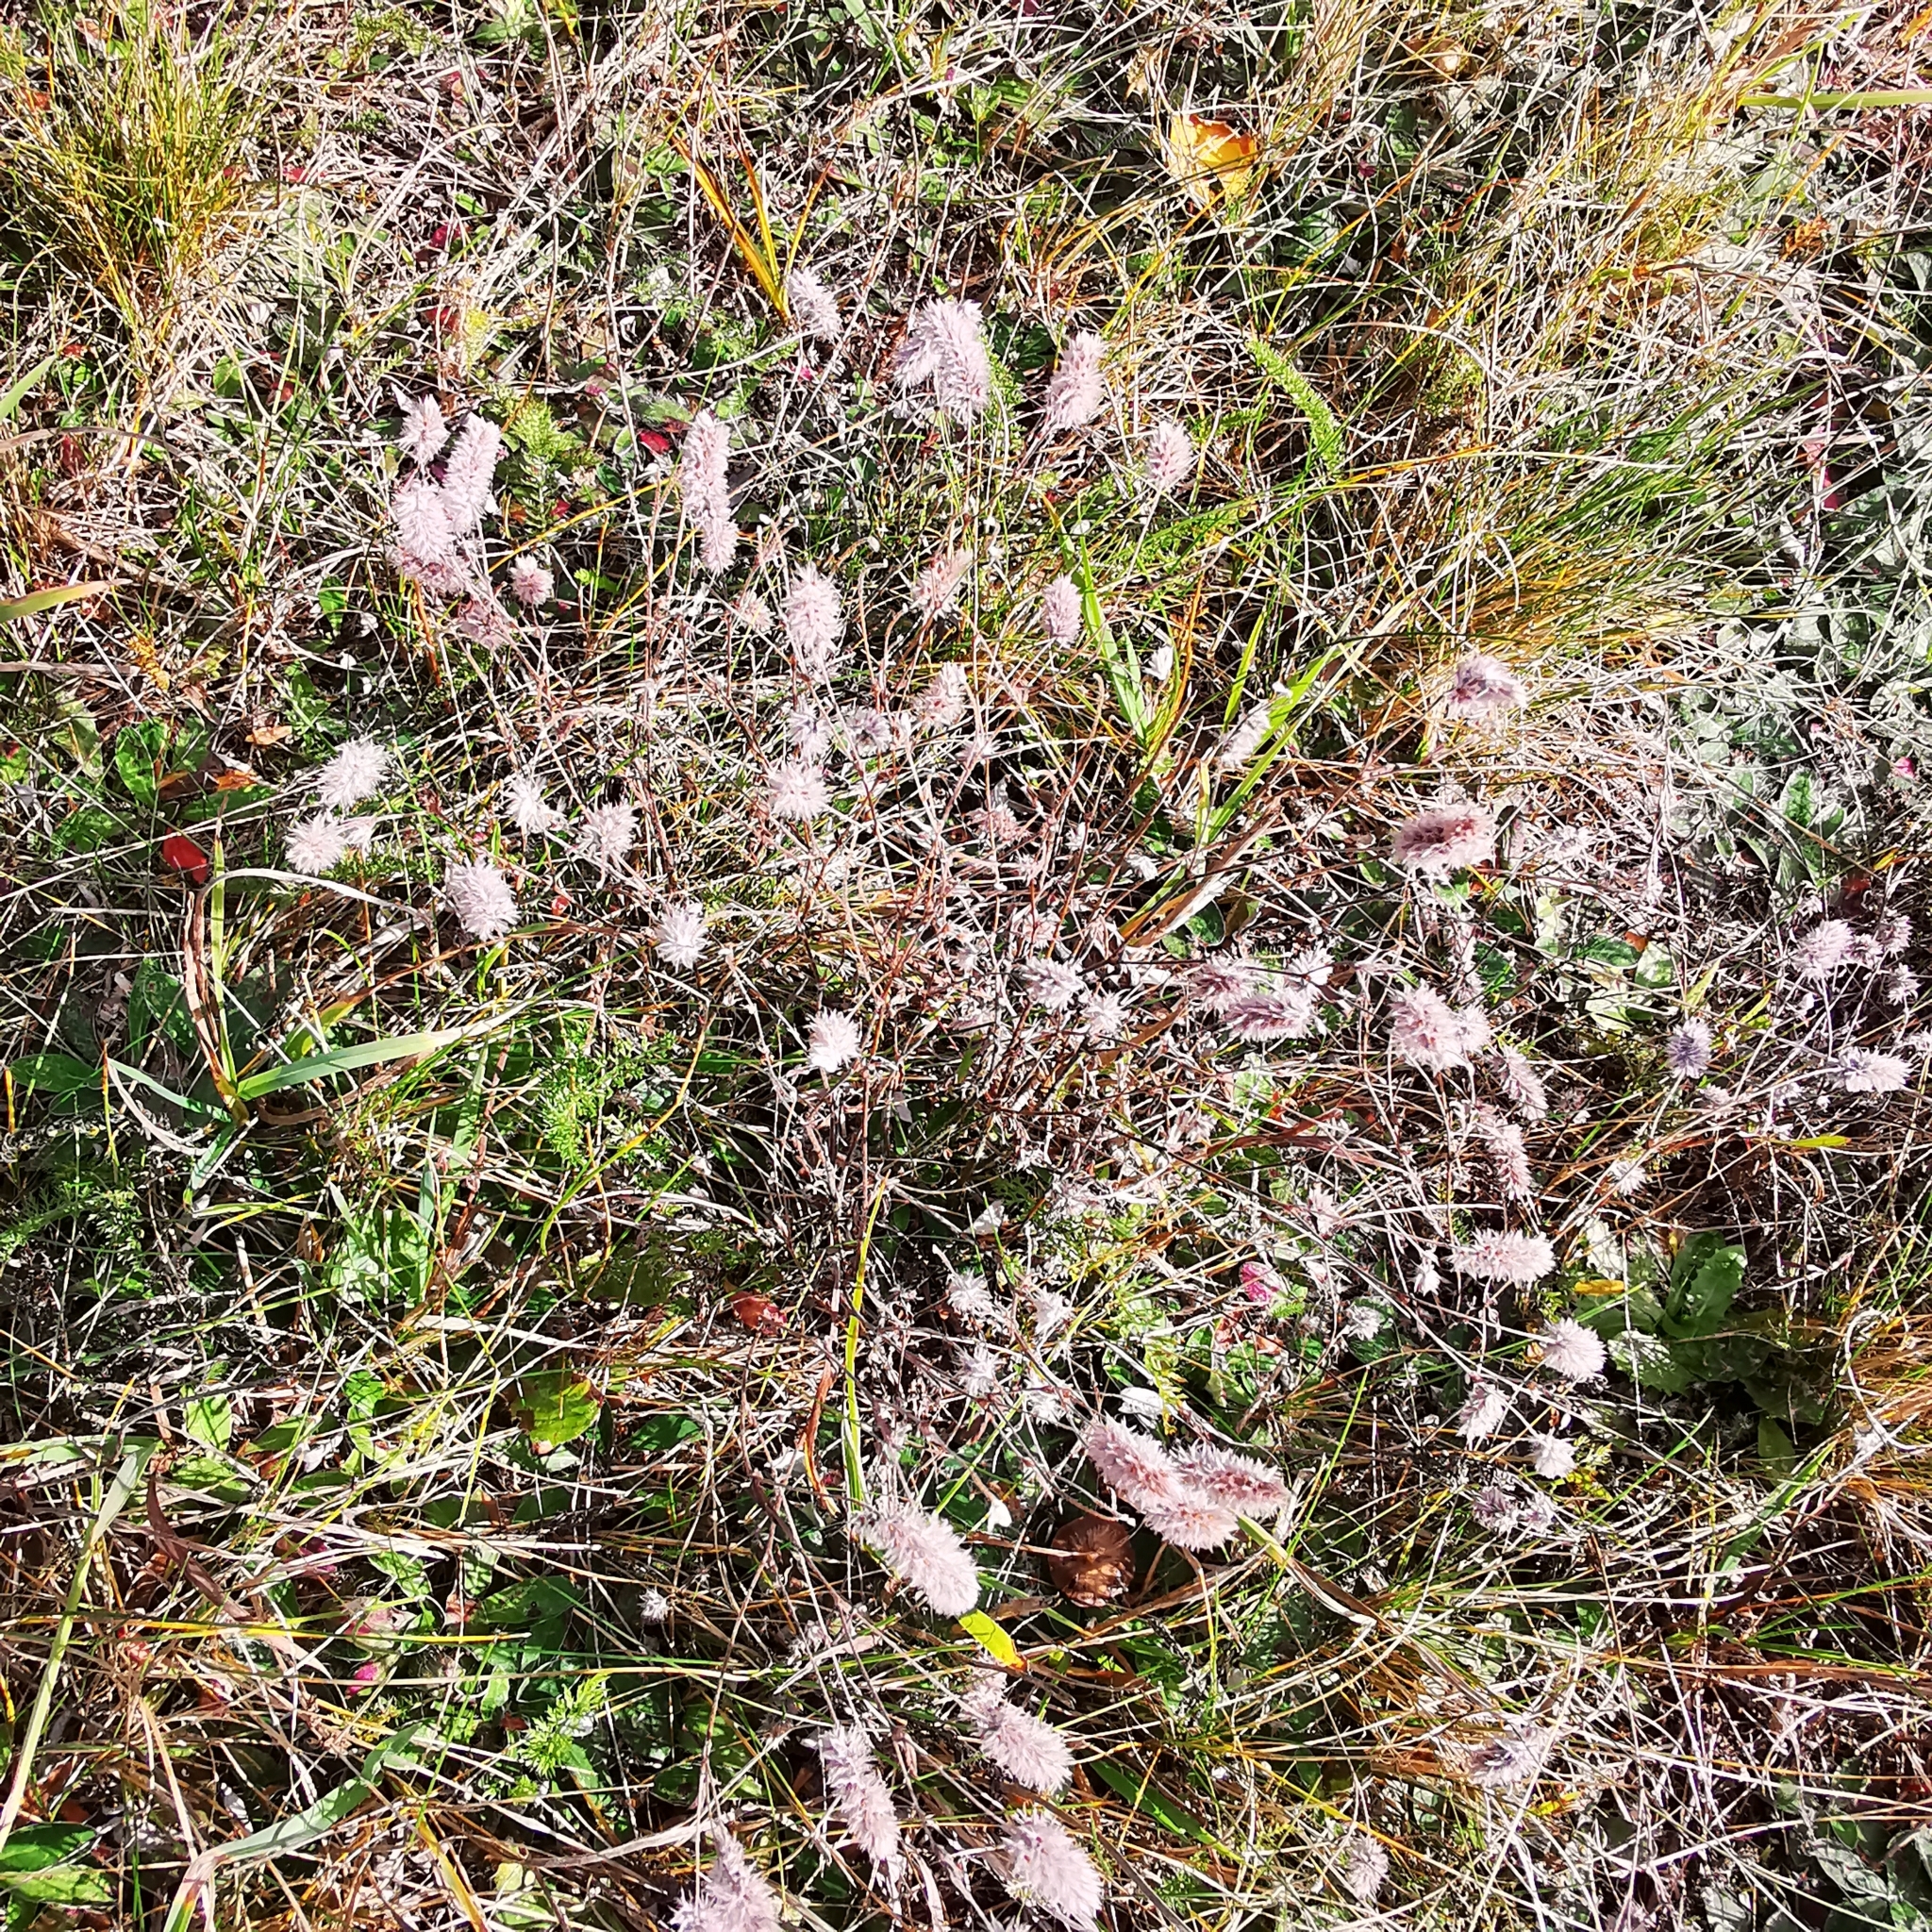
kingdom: Plantae
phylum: Tracheophyta
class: Magnoliopsida
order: Fabales
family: Fabaceae
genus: Trifolium
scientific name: Trifolium arvense
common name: Hare's-foot clover
